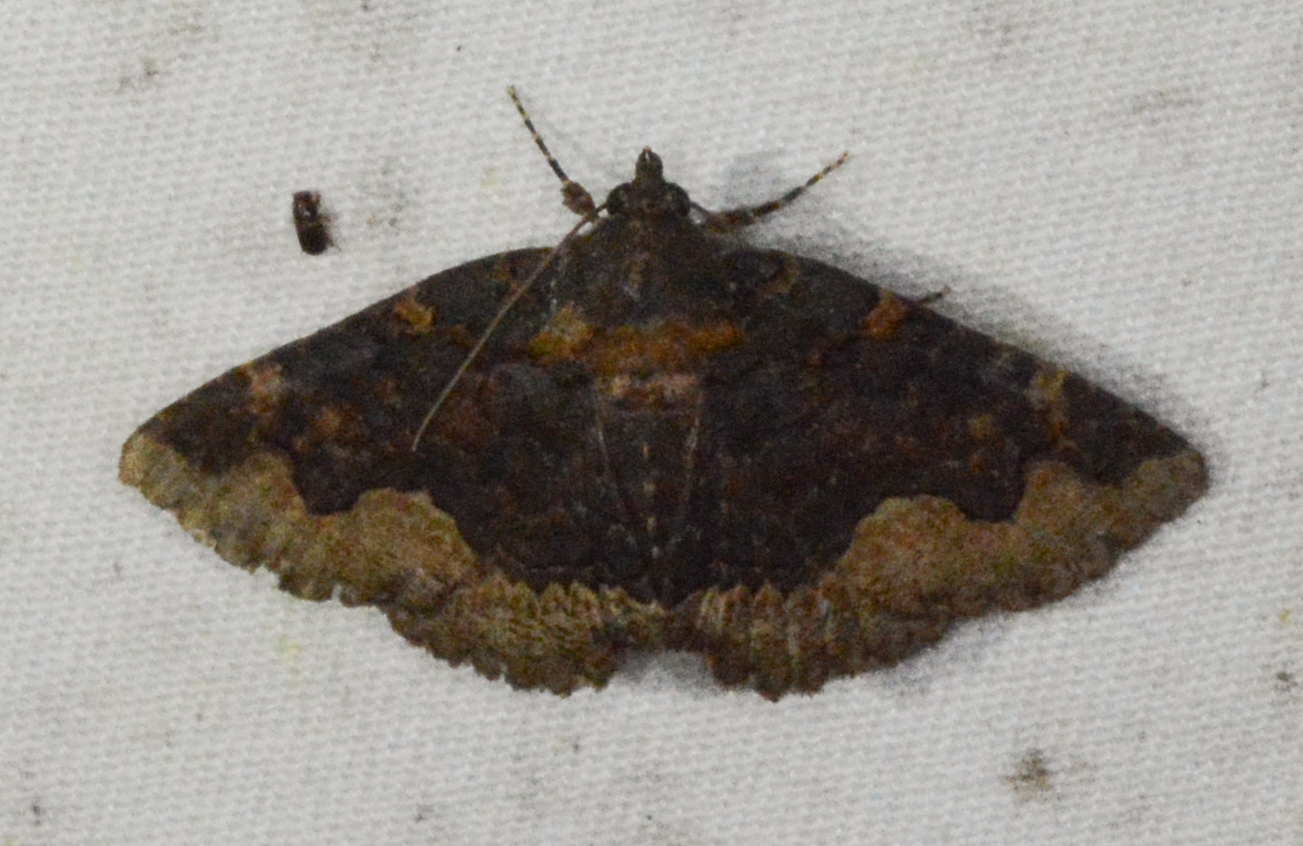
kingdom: Animalia
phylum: Arthropoda
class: Insecta
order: Lepidoptera
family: Erebidae
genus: Zale
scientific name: Zale horrida
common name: Horrid zale moth
